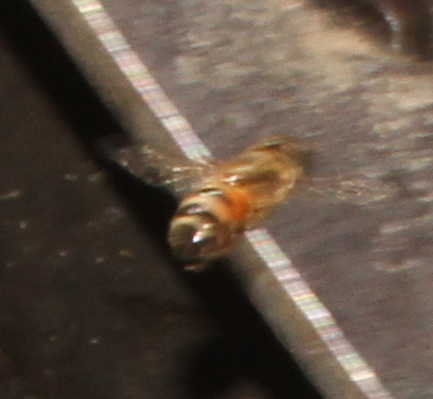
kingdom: Animalia
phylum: Arthropoda
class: Insecta
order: Diptera
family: Syrphidae
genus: Eristalinus
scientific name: Eristalinus taeniops
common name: Syrphid fly
